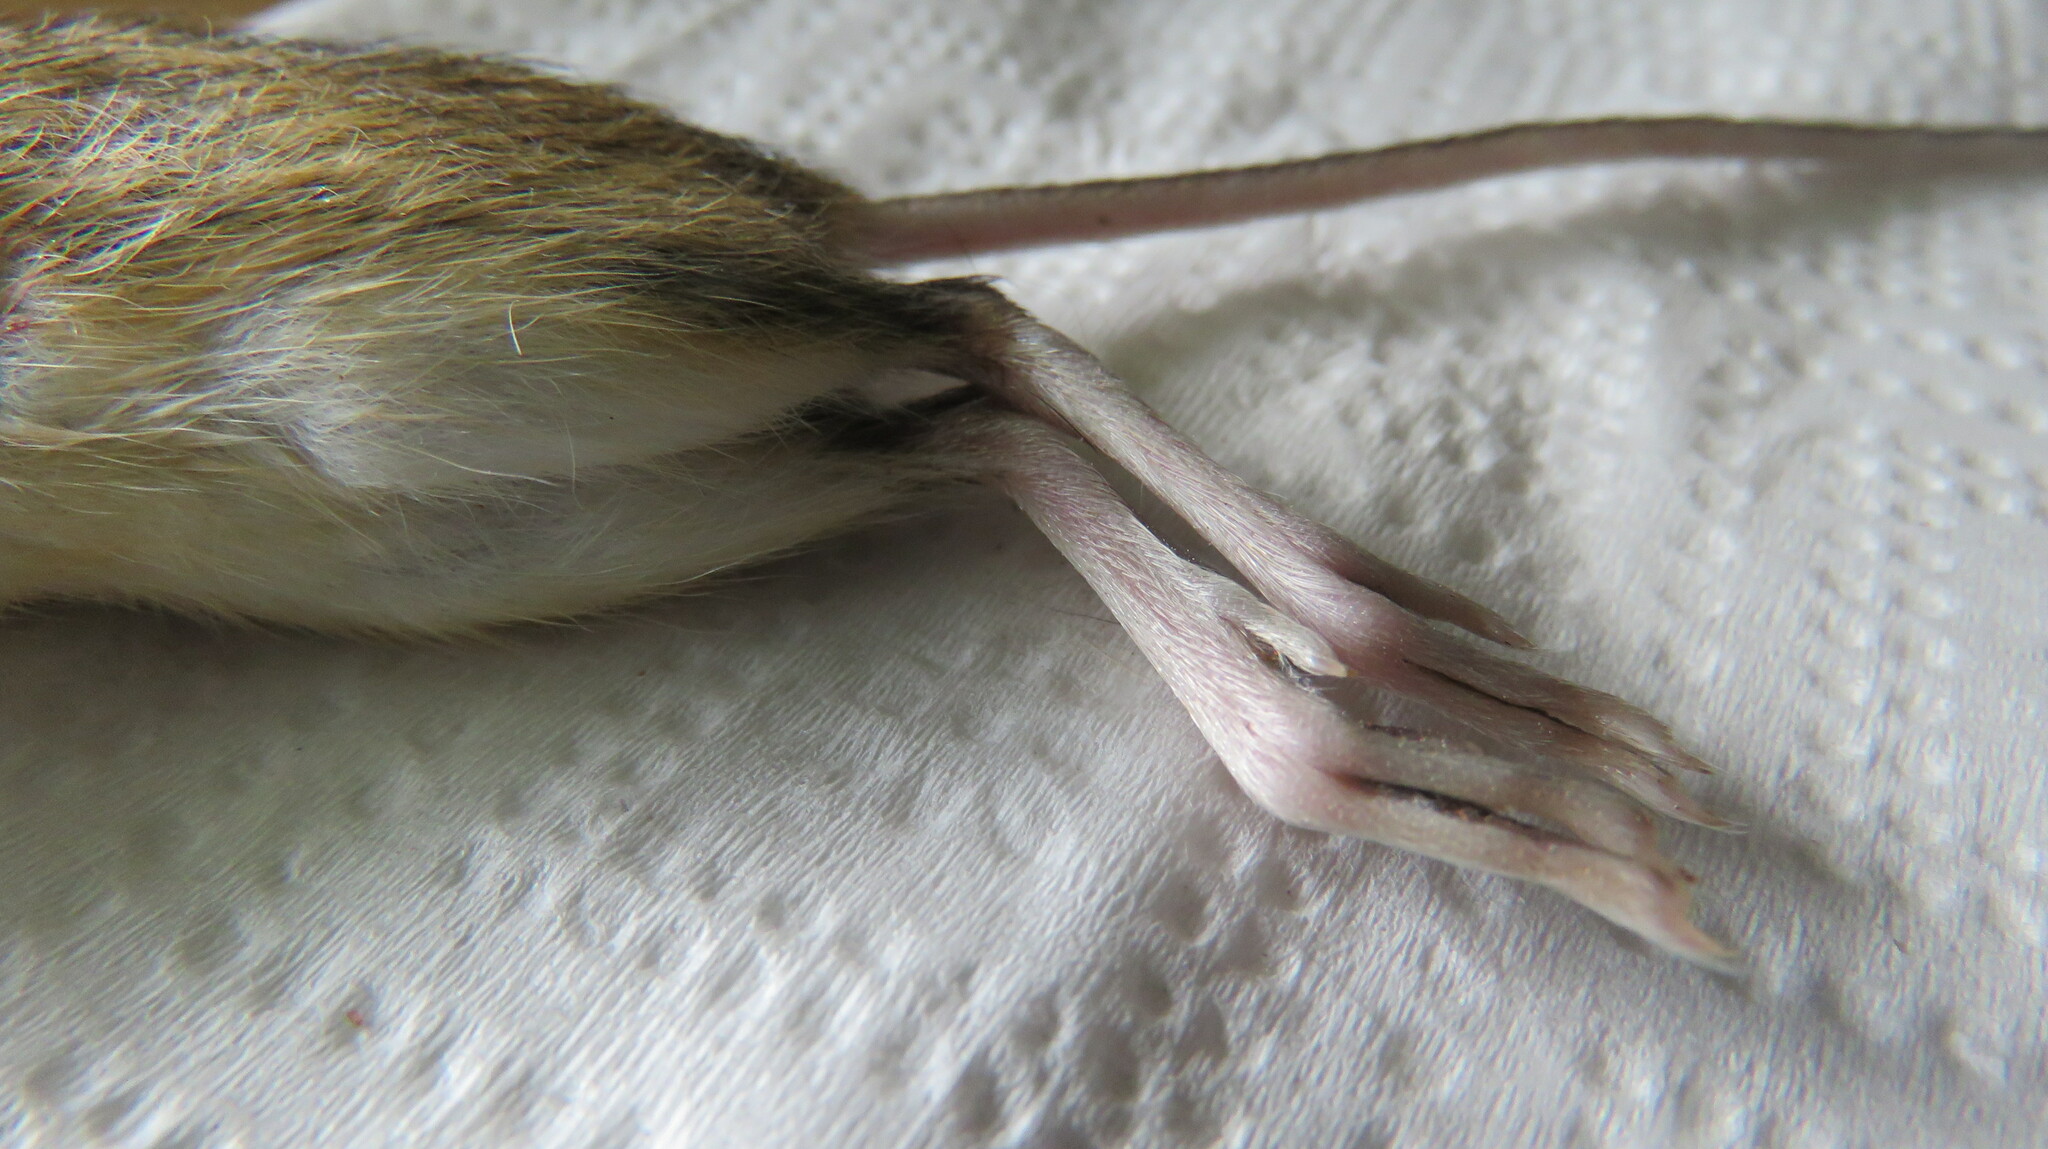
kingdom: Animalia
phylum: Chordata
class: Mammalia
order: Rodentia
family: Dipodidae
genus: Zapus
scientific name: Zapus hudsonius
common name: Meadow jumping mouse
